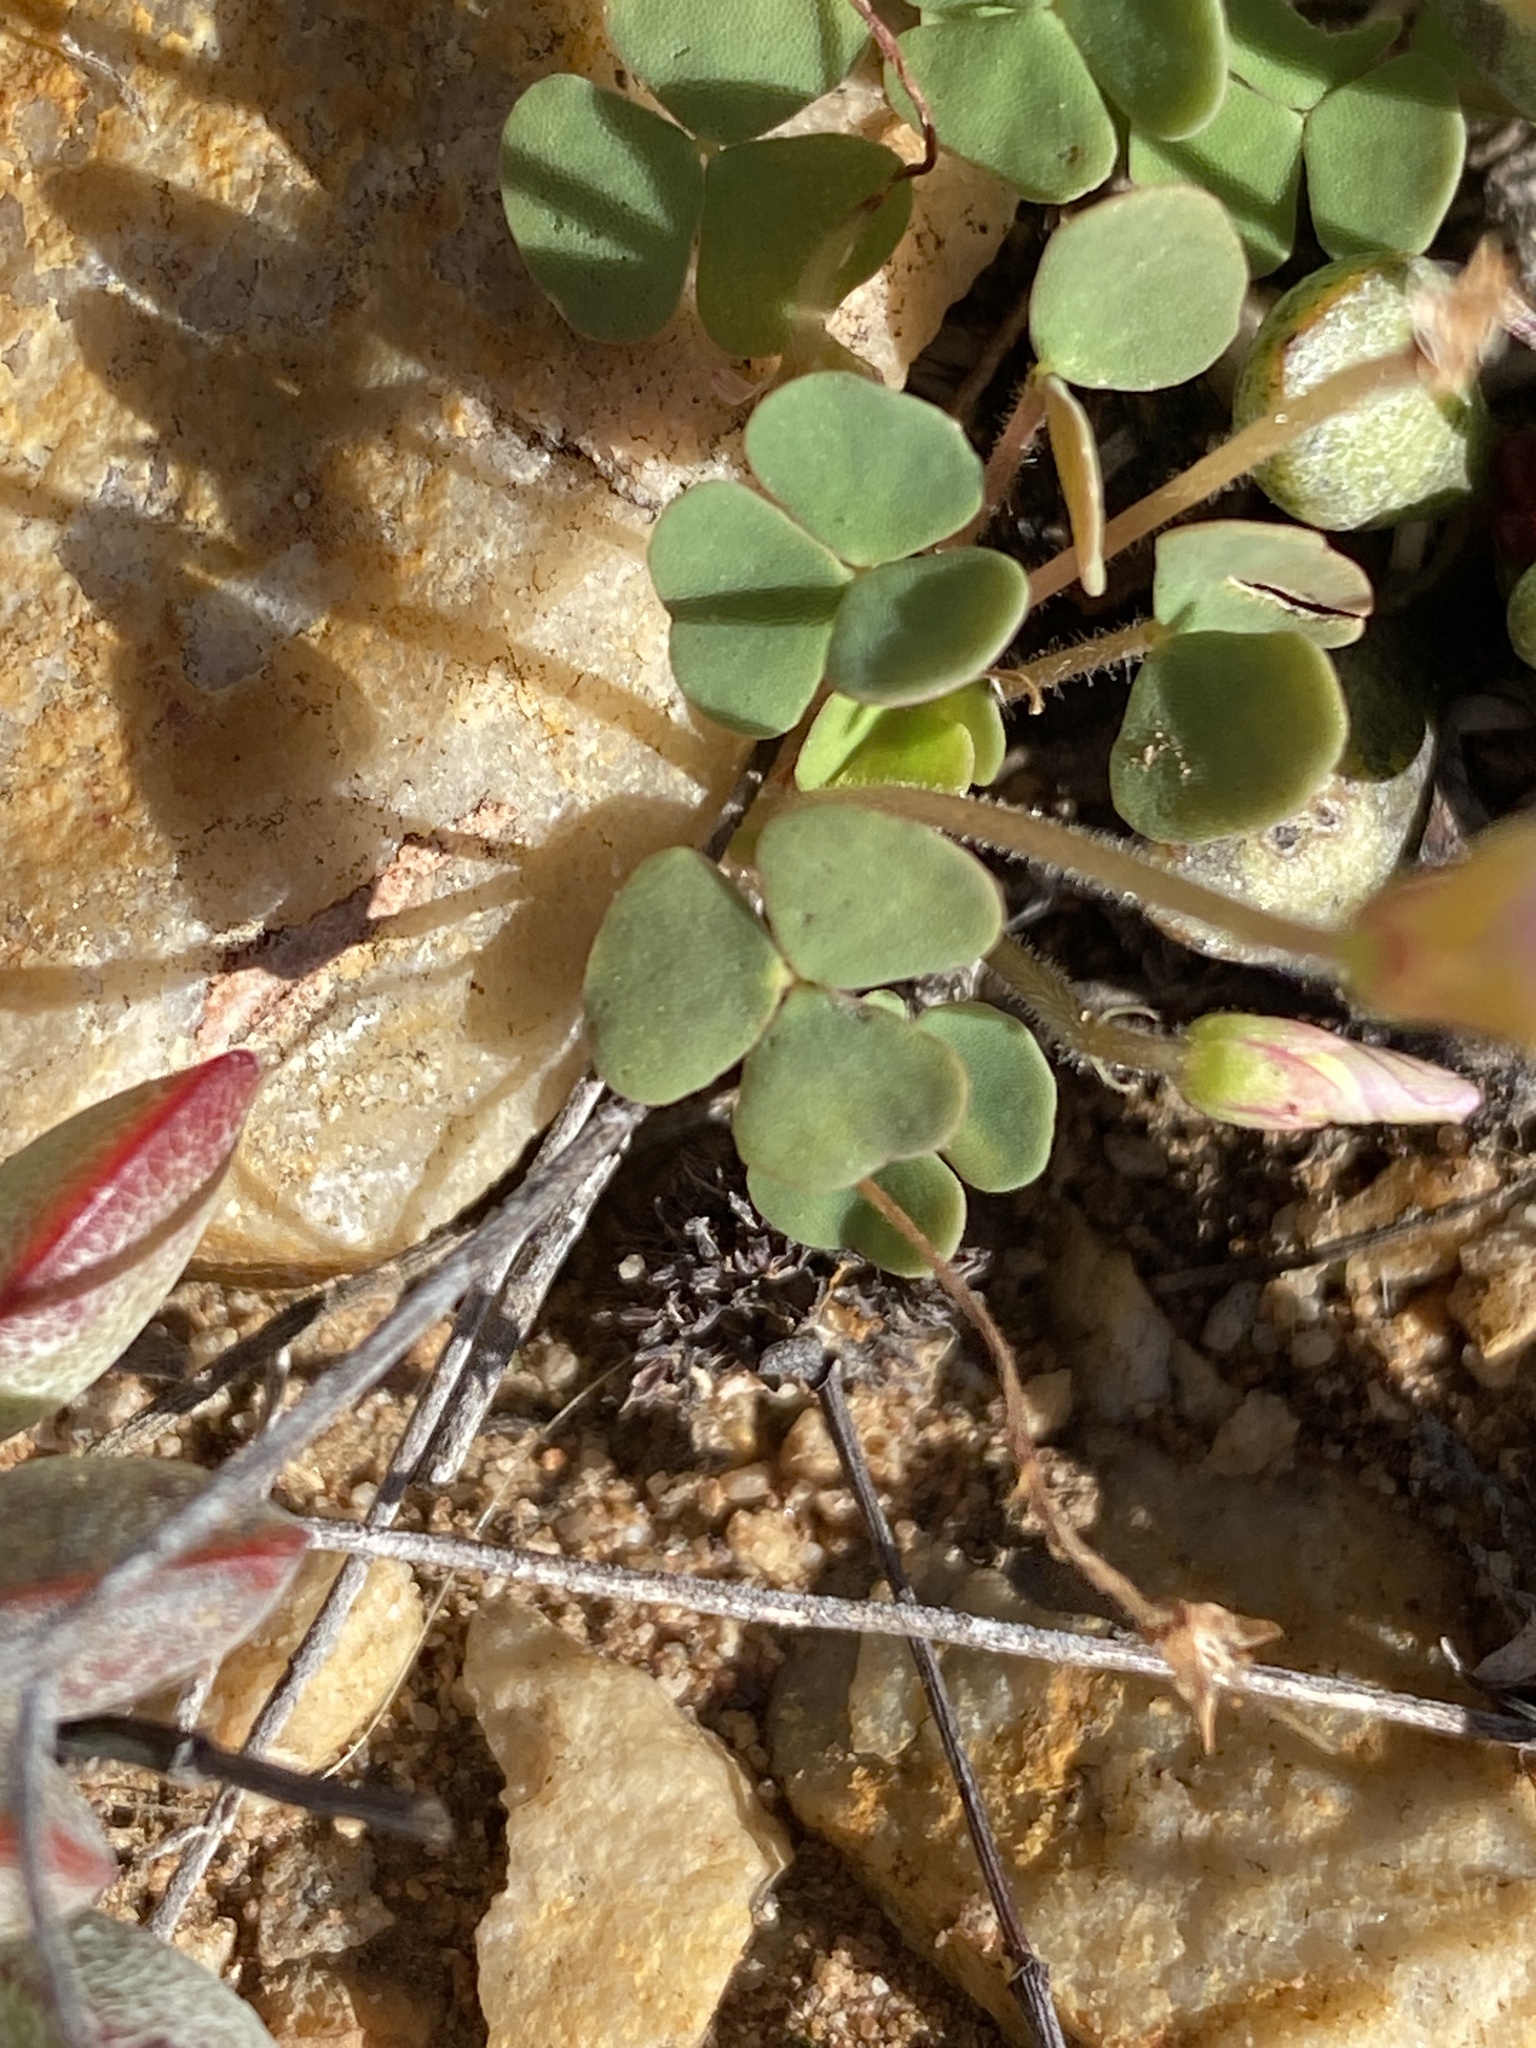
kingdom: Plantae
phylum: Tracheophyta
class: Magnoliopsida
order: Oxalidales
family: Oxalidaceae
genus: Oxalis
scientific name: Oxalis punctata
